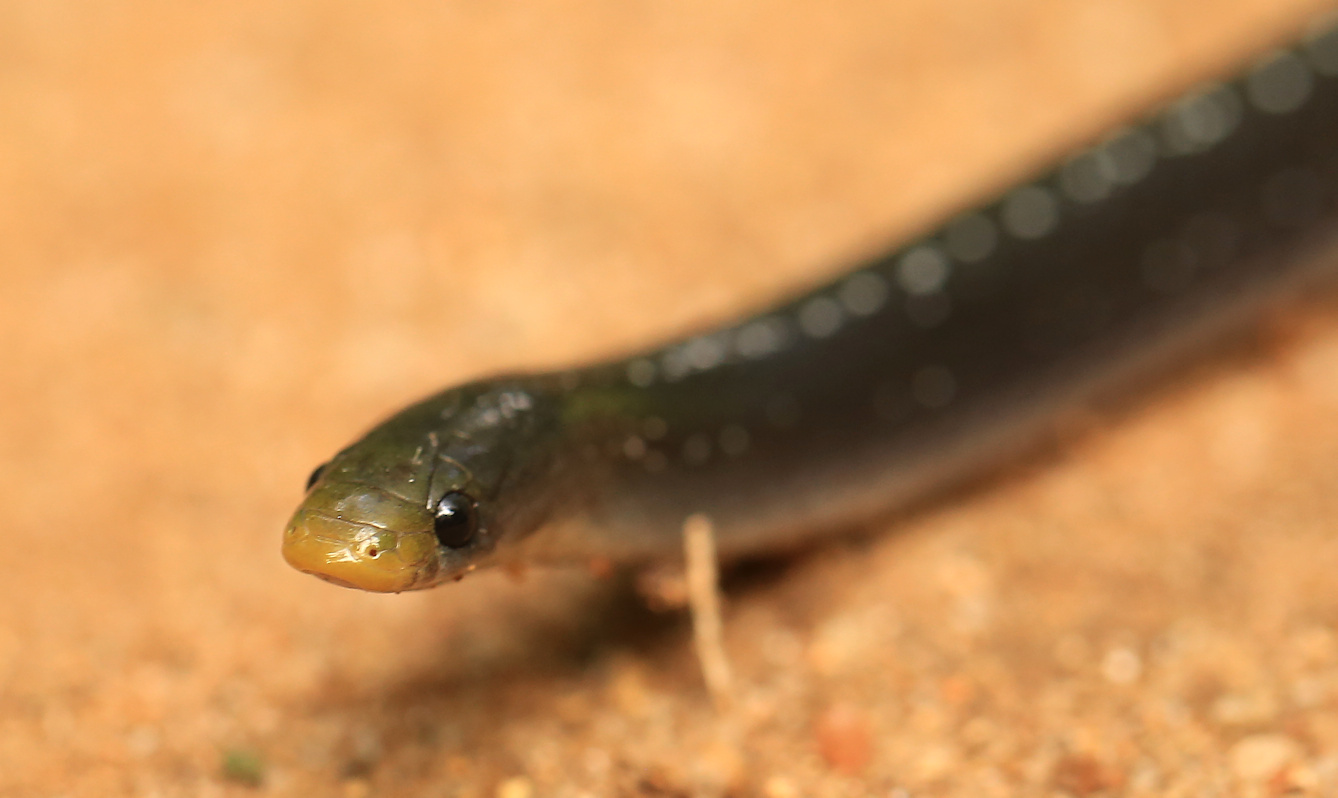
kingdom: Animalia
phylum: Chordata
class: Squamata
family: Prosymnidae
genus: Prosymna
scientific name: Prosymna stuhlmanni
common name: East african shovel-snout snake
